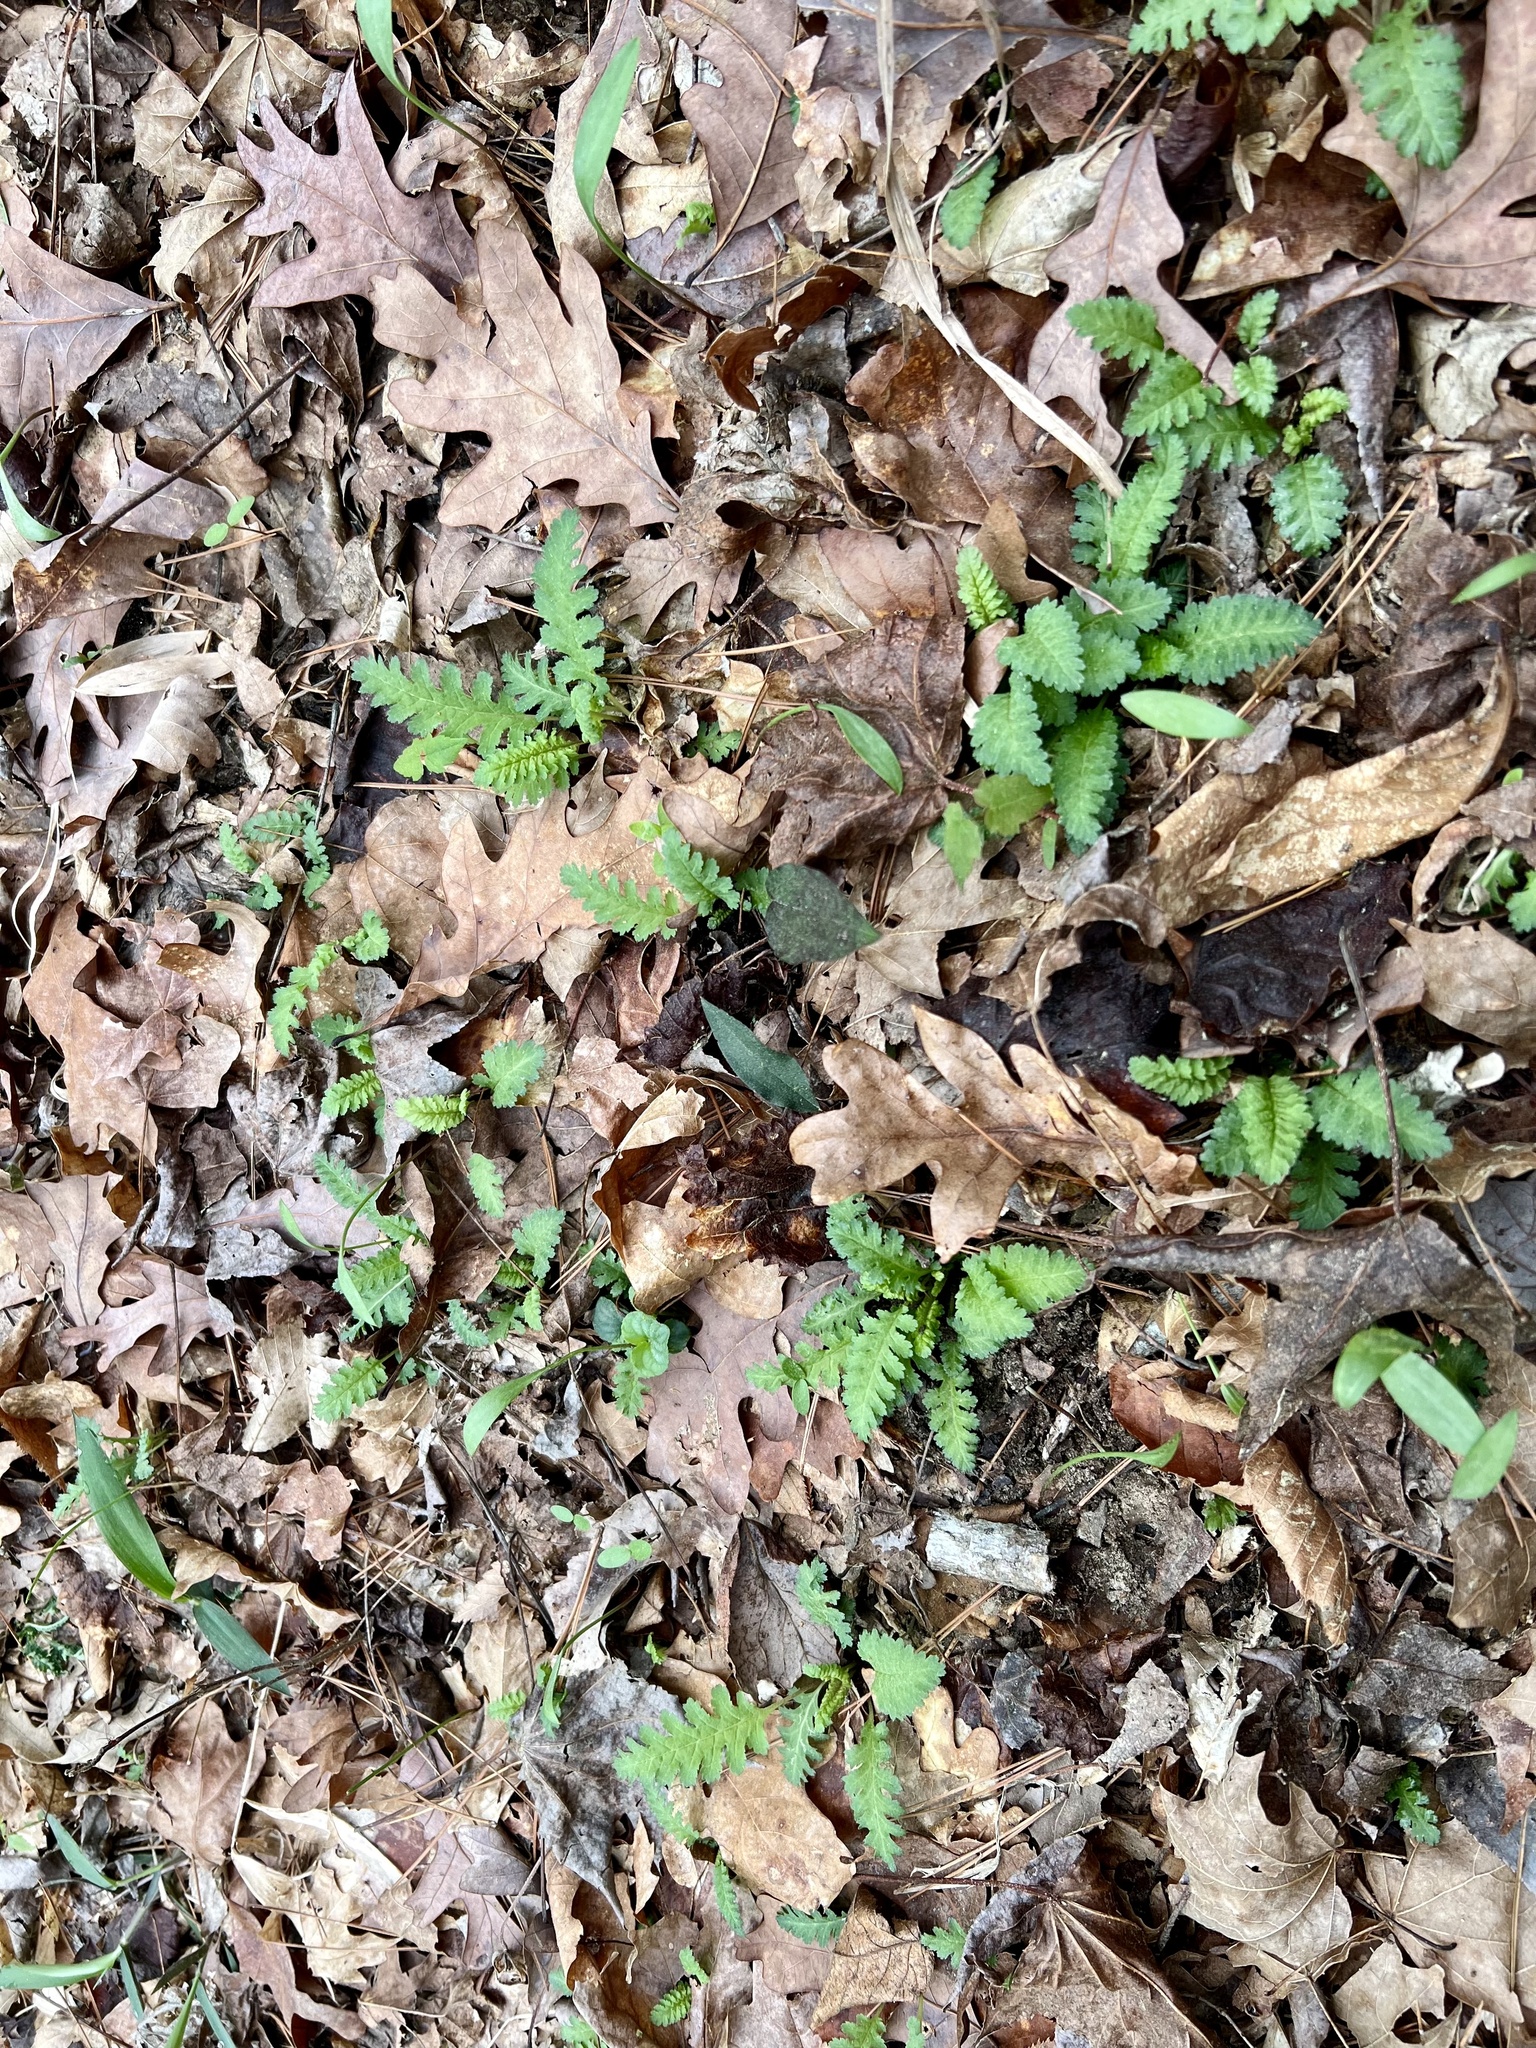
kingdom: Plantae
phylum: Tracheophyta
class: Magnoliopsida
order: Lamiales
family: Orobanchaceae
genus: Pedicularis
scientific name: Pedicularis canadensis
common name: Early lousewort
